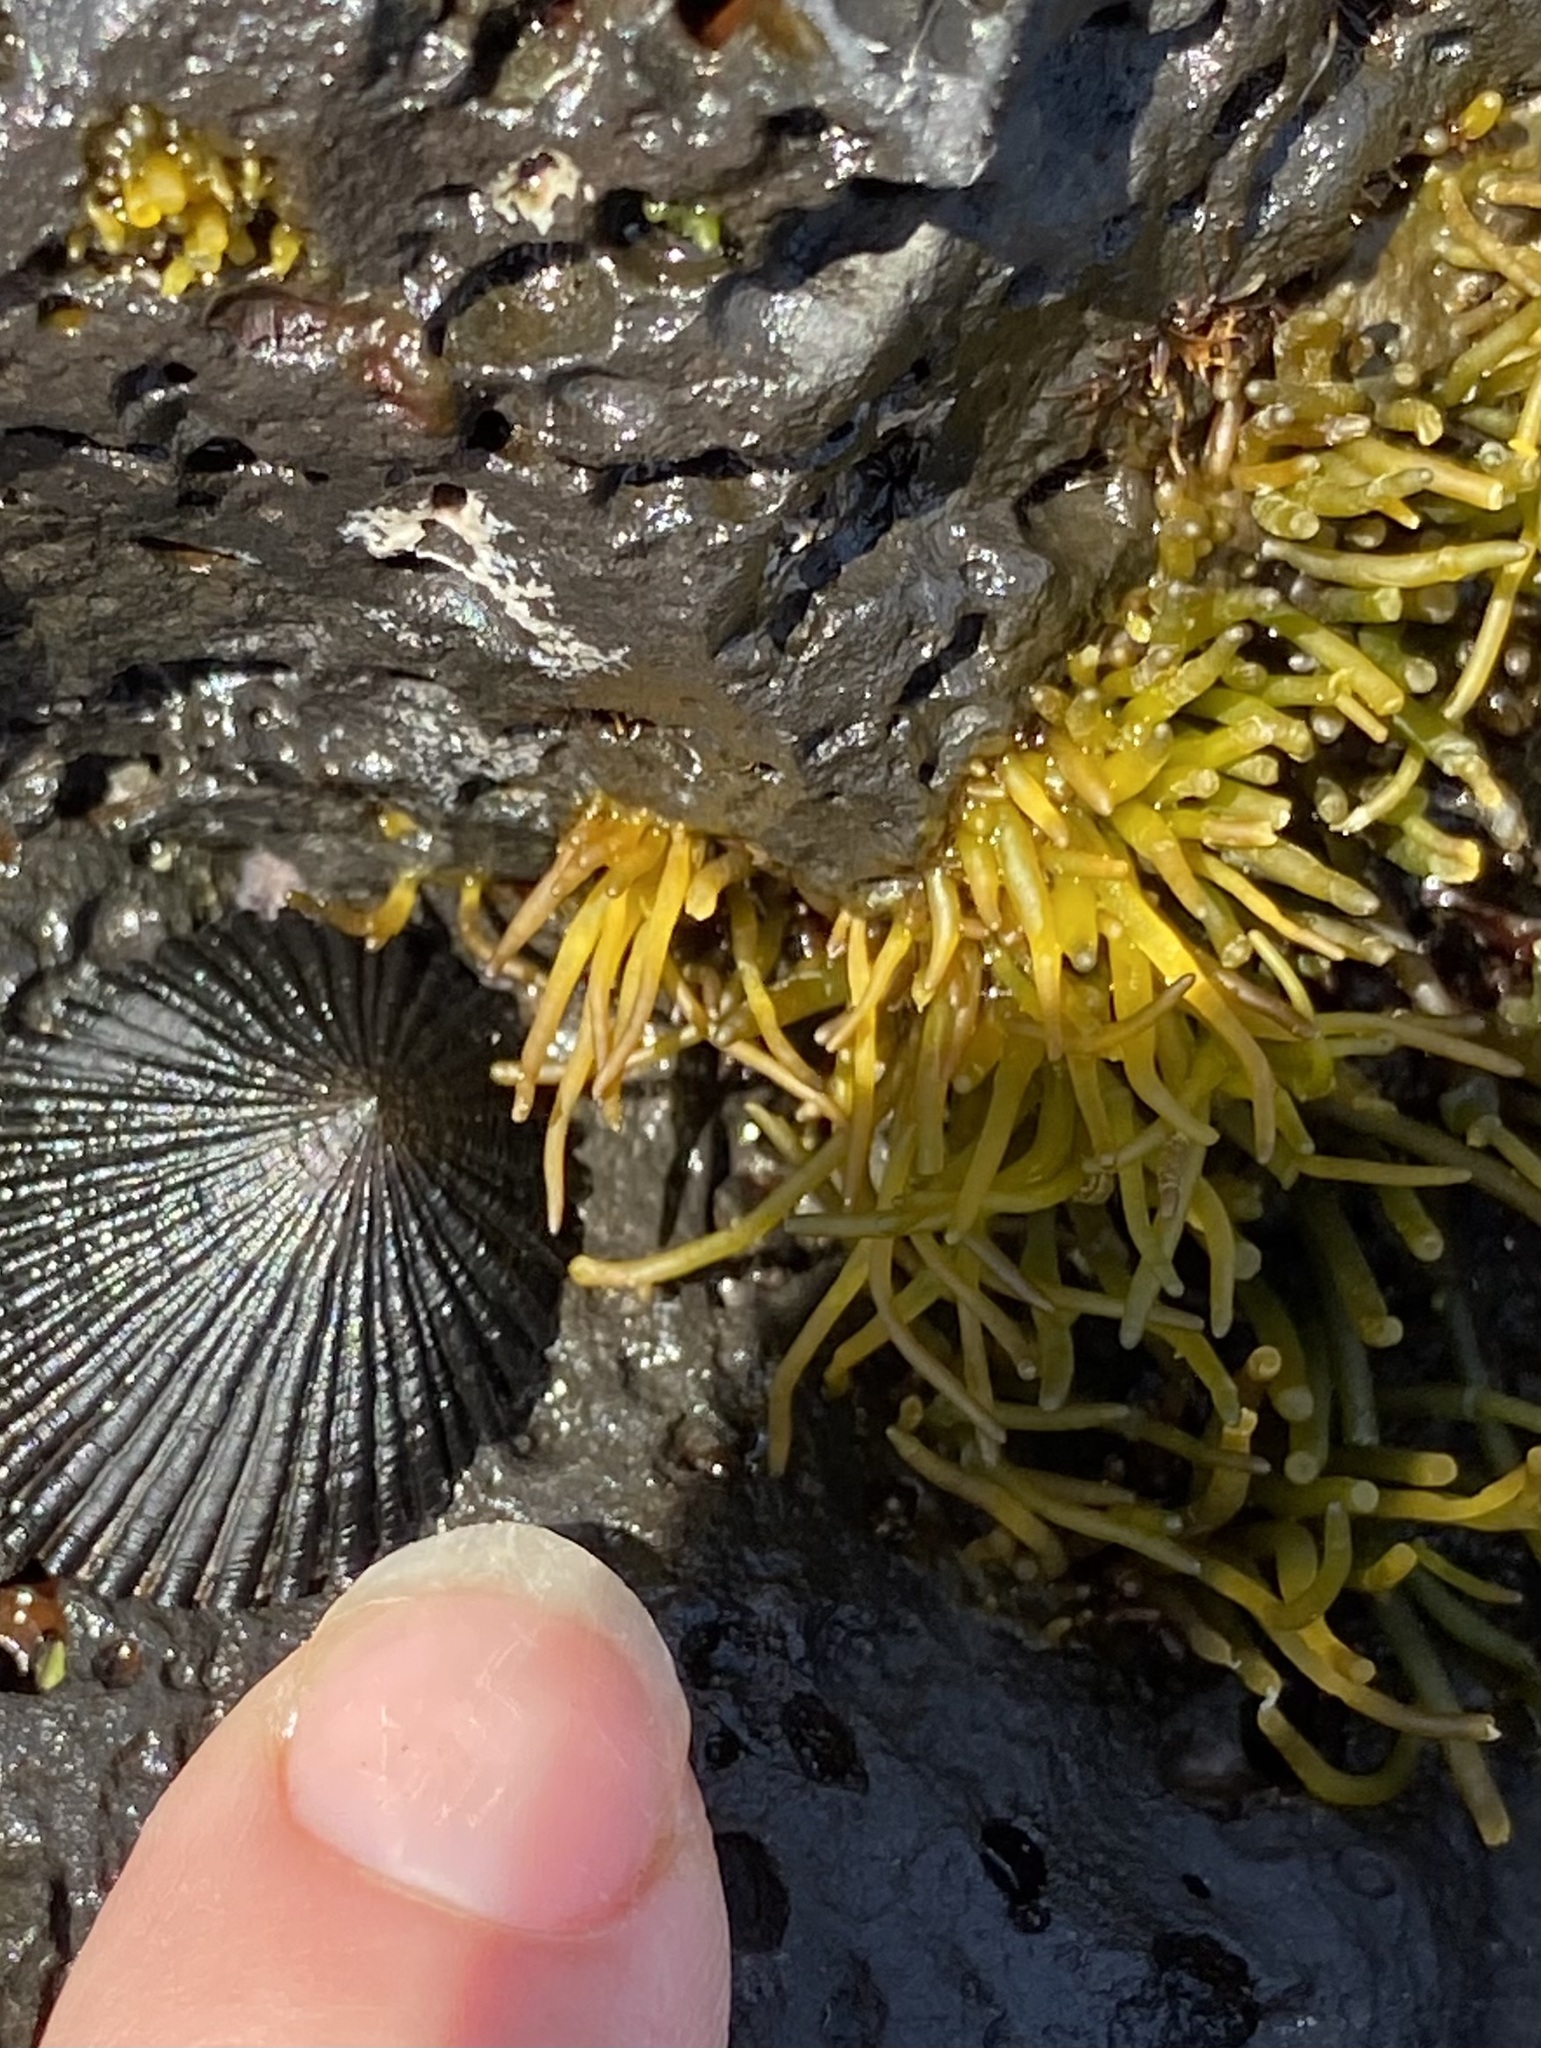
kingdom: Plantae
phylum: Rhodophyta
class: Florideophyceae
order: Gigartinales
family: Phyllophoraceae
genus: Gymnogongrus
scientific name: Gymnogongrus durvillei
